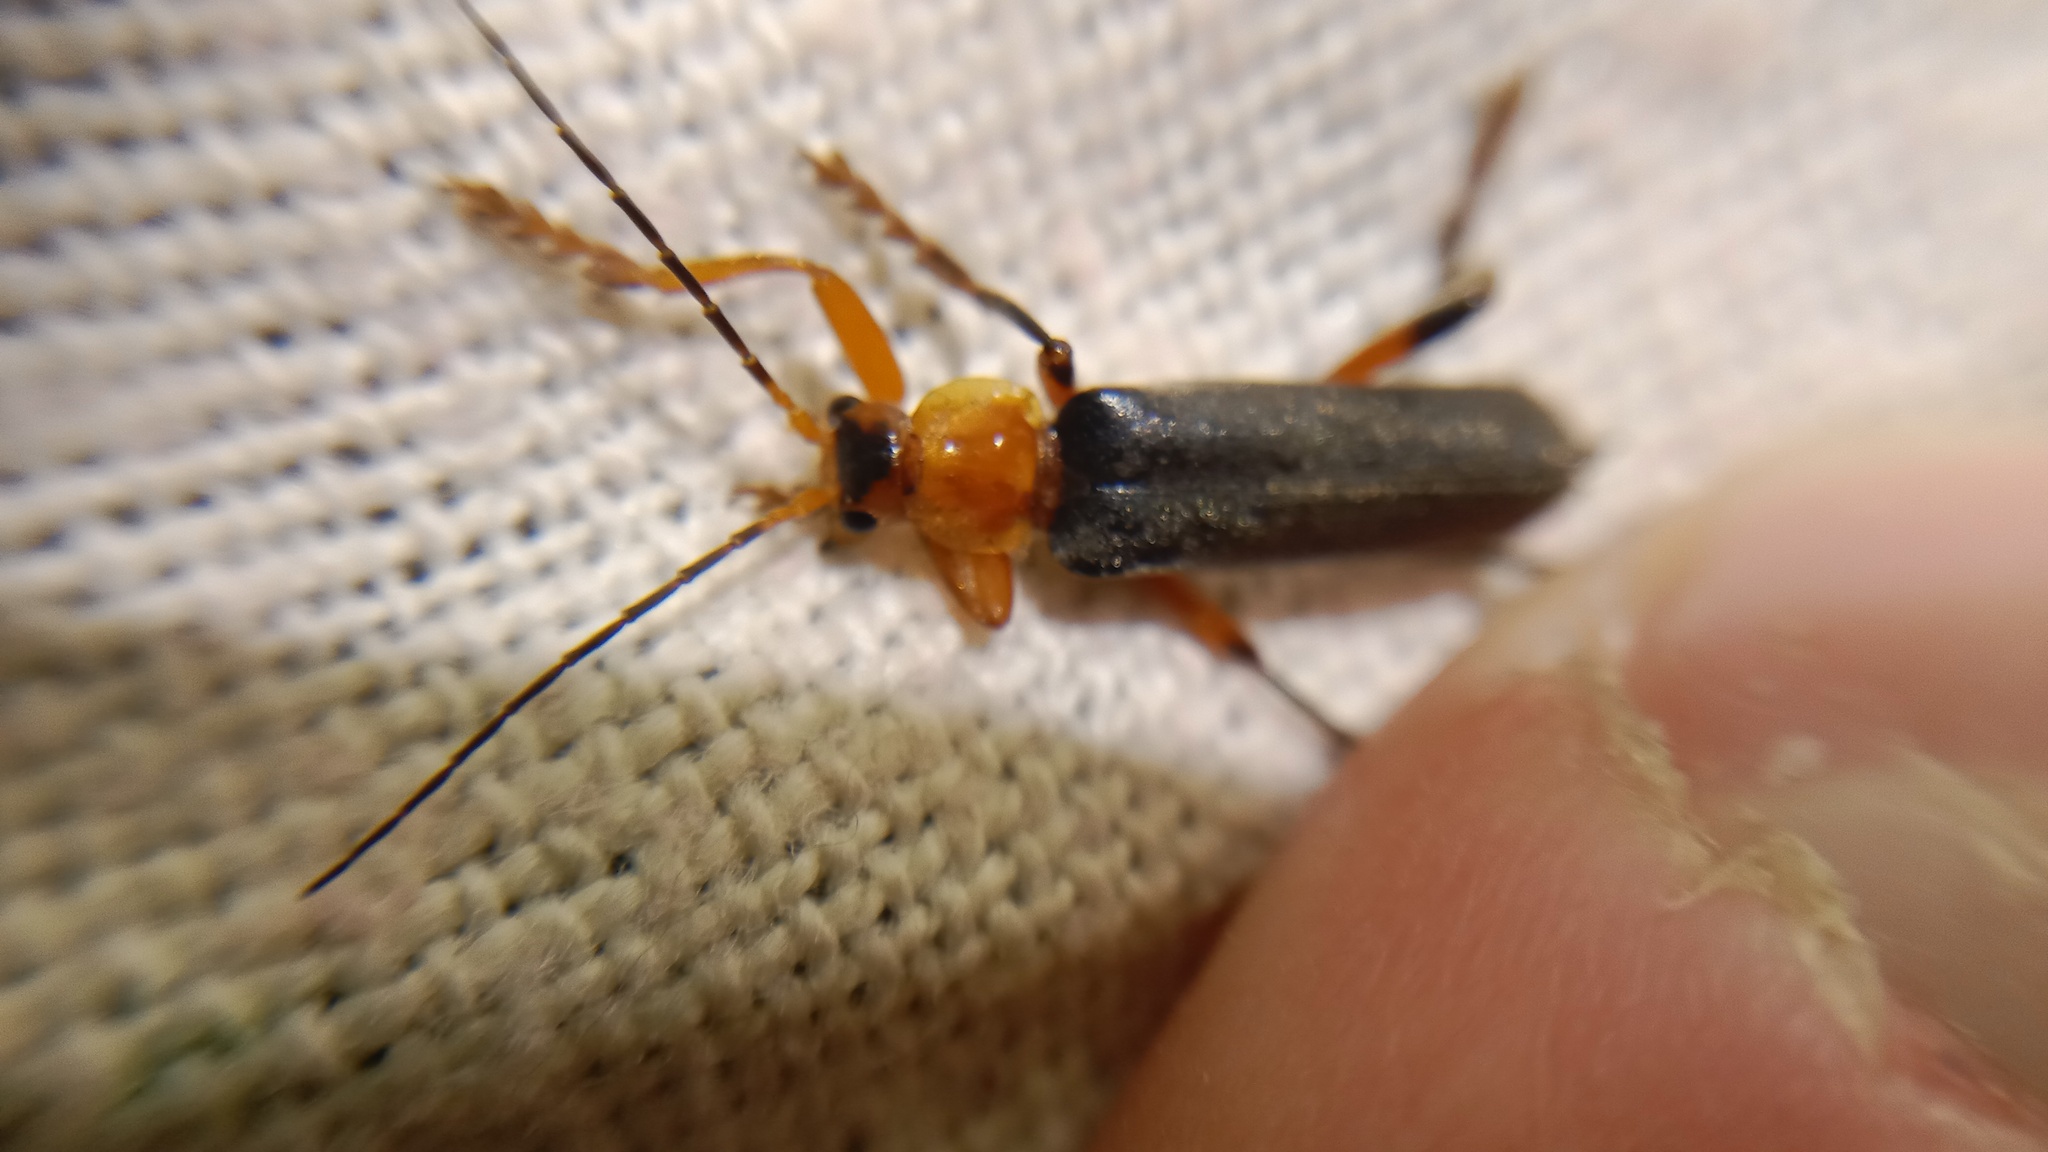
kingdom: Animalia
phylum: Arthropoda
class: Insecta
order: Coleoptera
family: Cantharidae
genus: Cantharis
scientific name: Cantharis livida
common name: Livid soldier beetle
